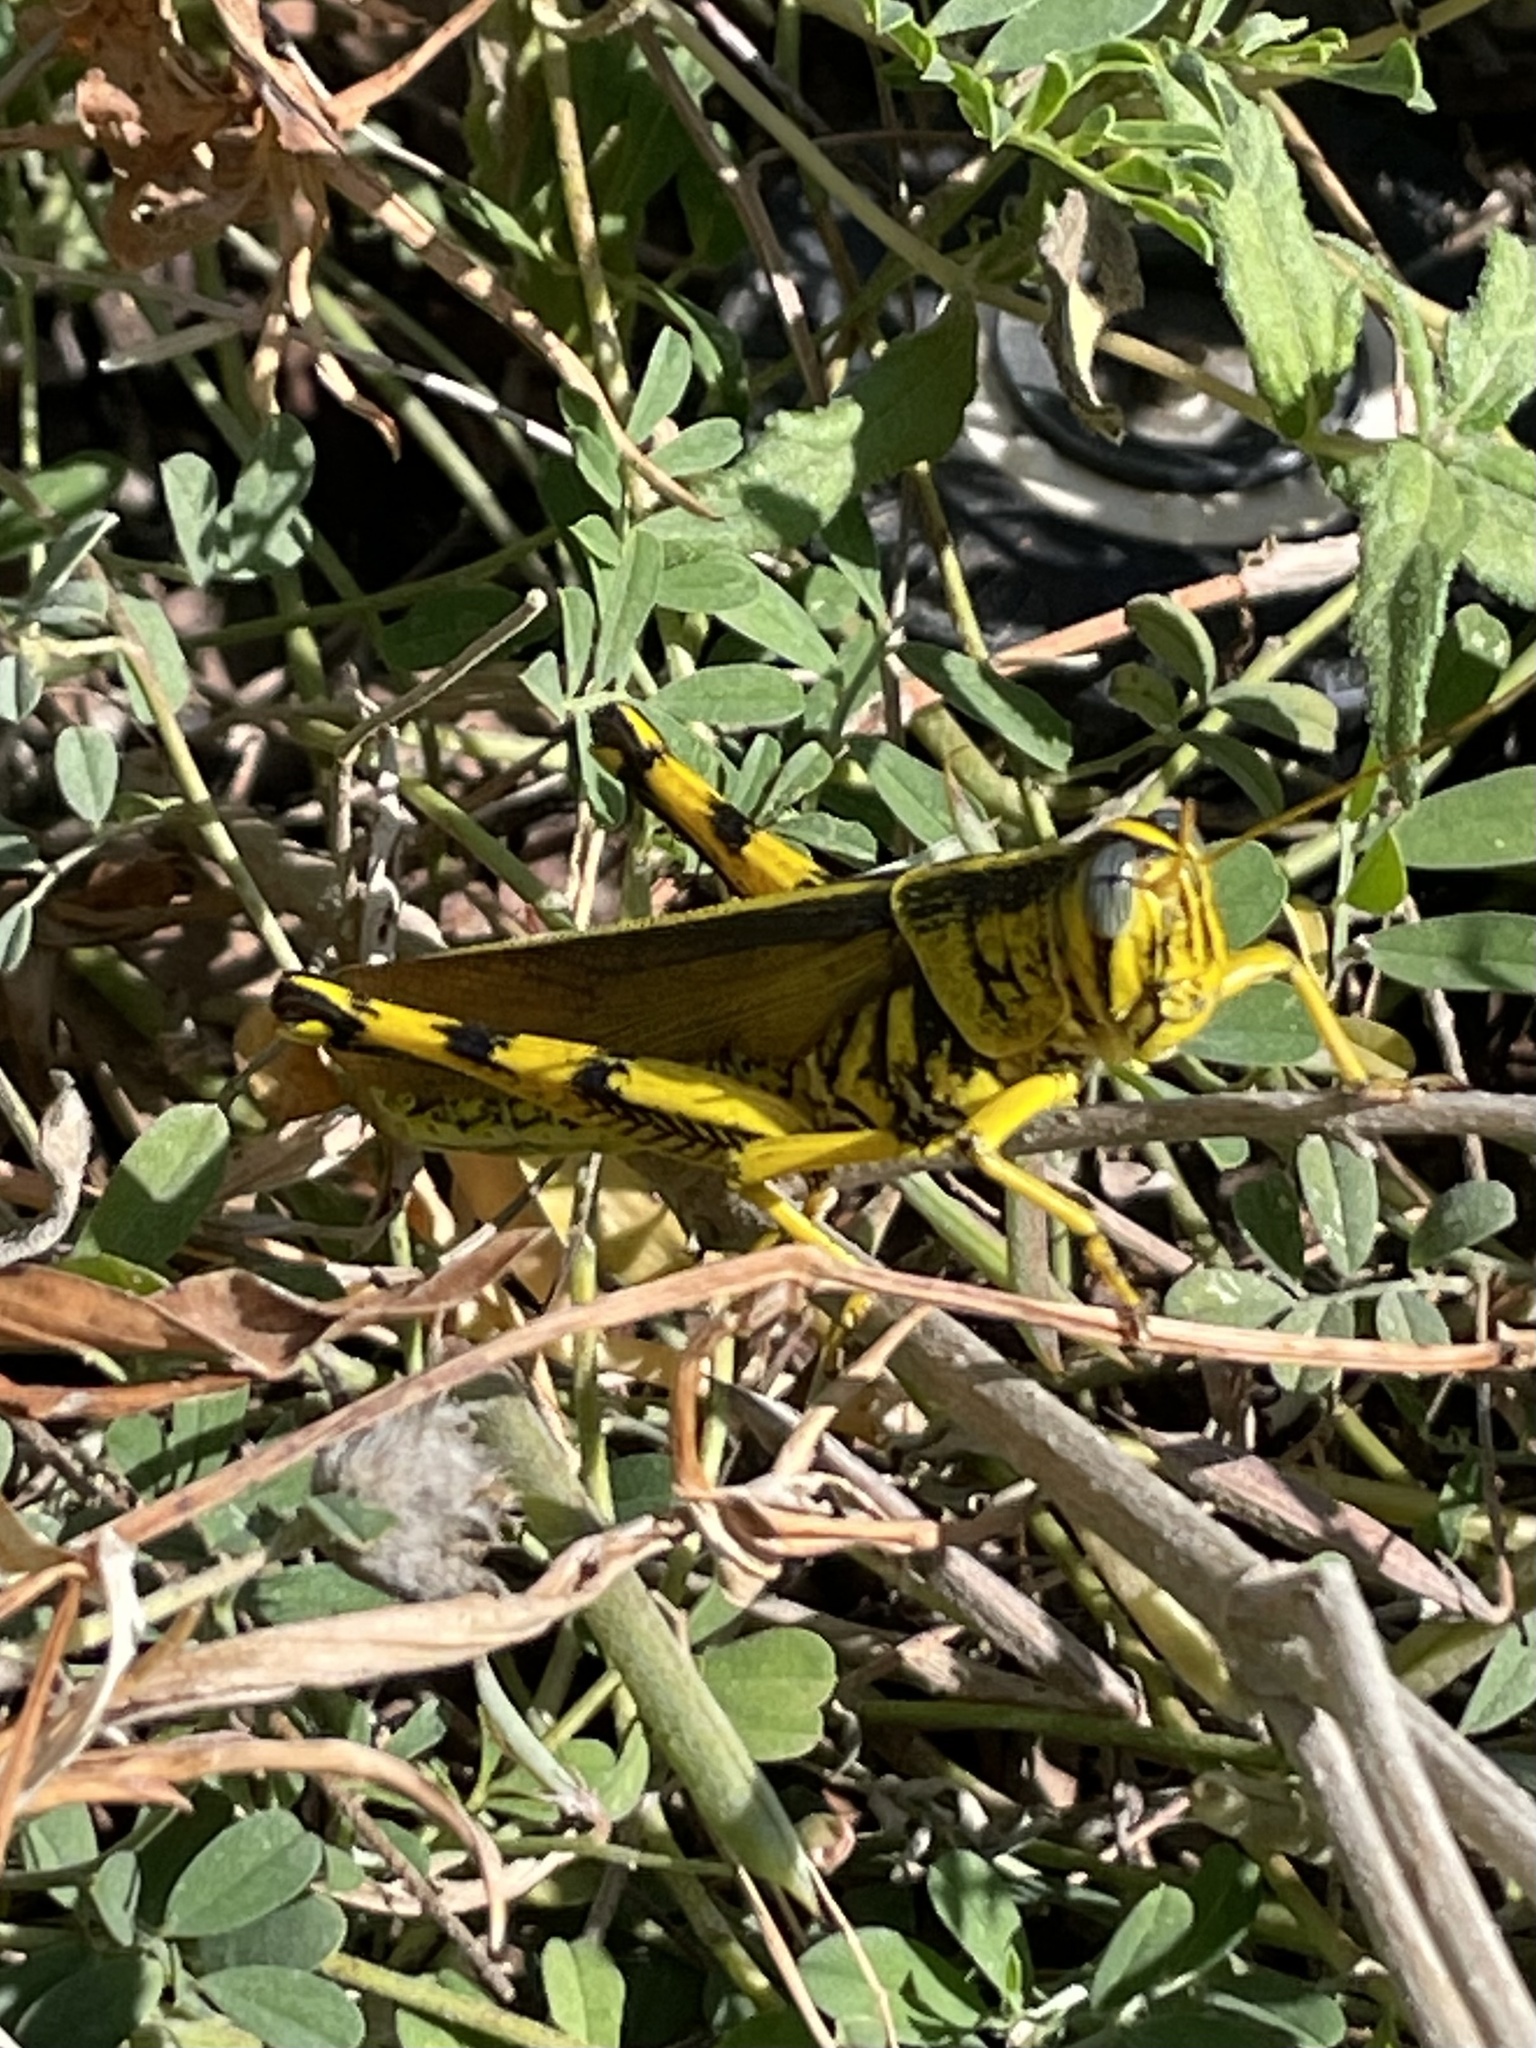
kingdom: Animalia
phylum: Arthropoda
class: Insecta
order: Orthoptera
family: Acrididae
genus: Schistocerca
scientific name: Schistocerca lineata
